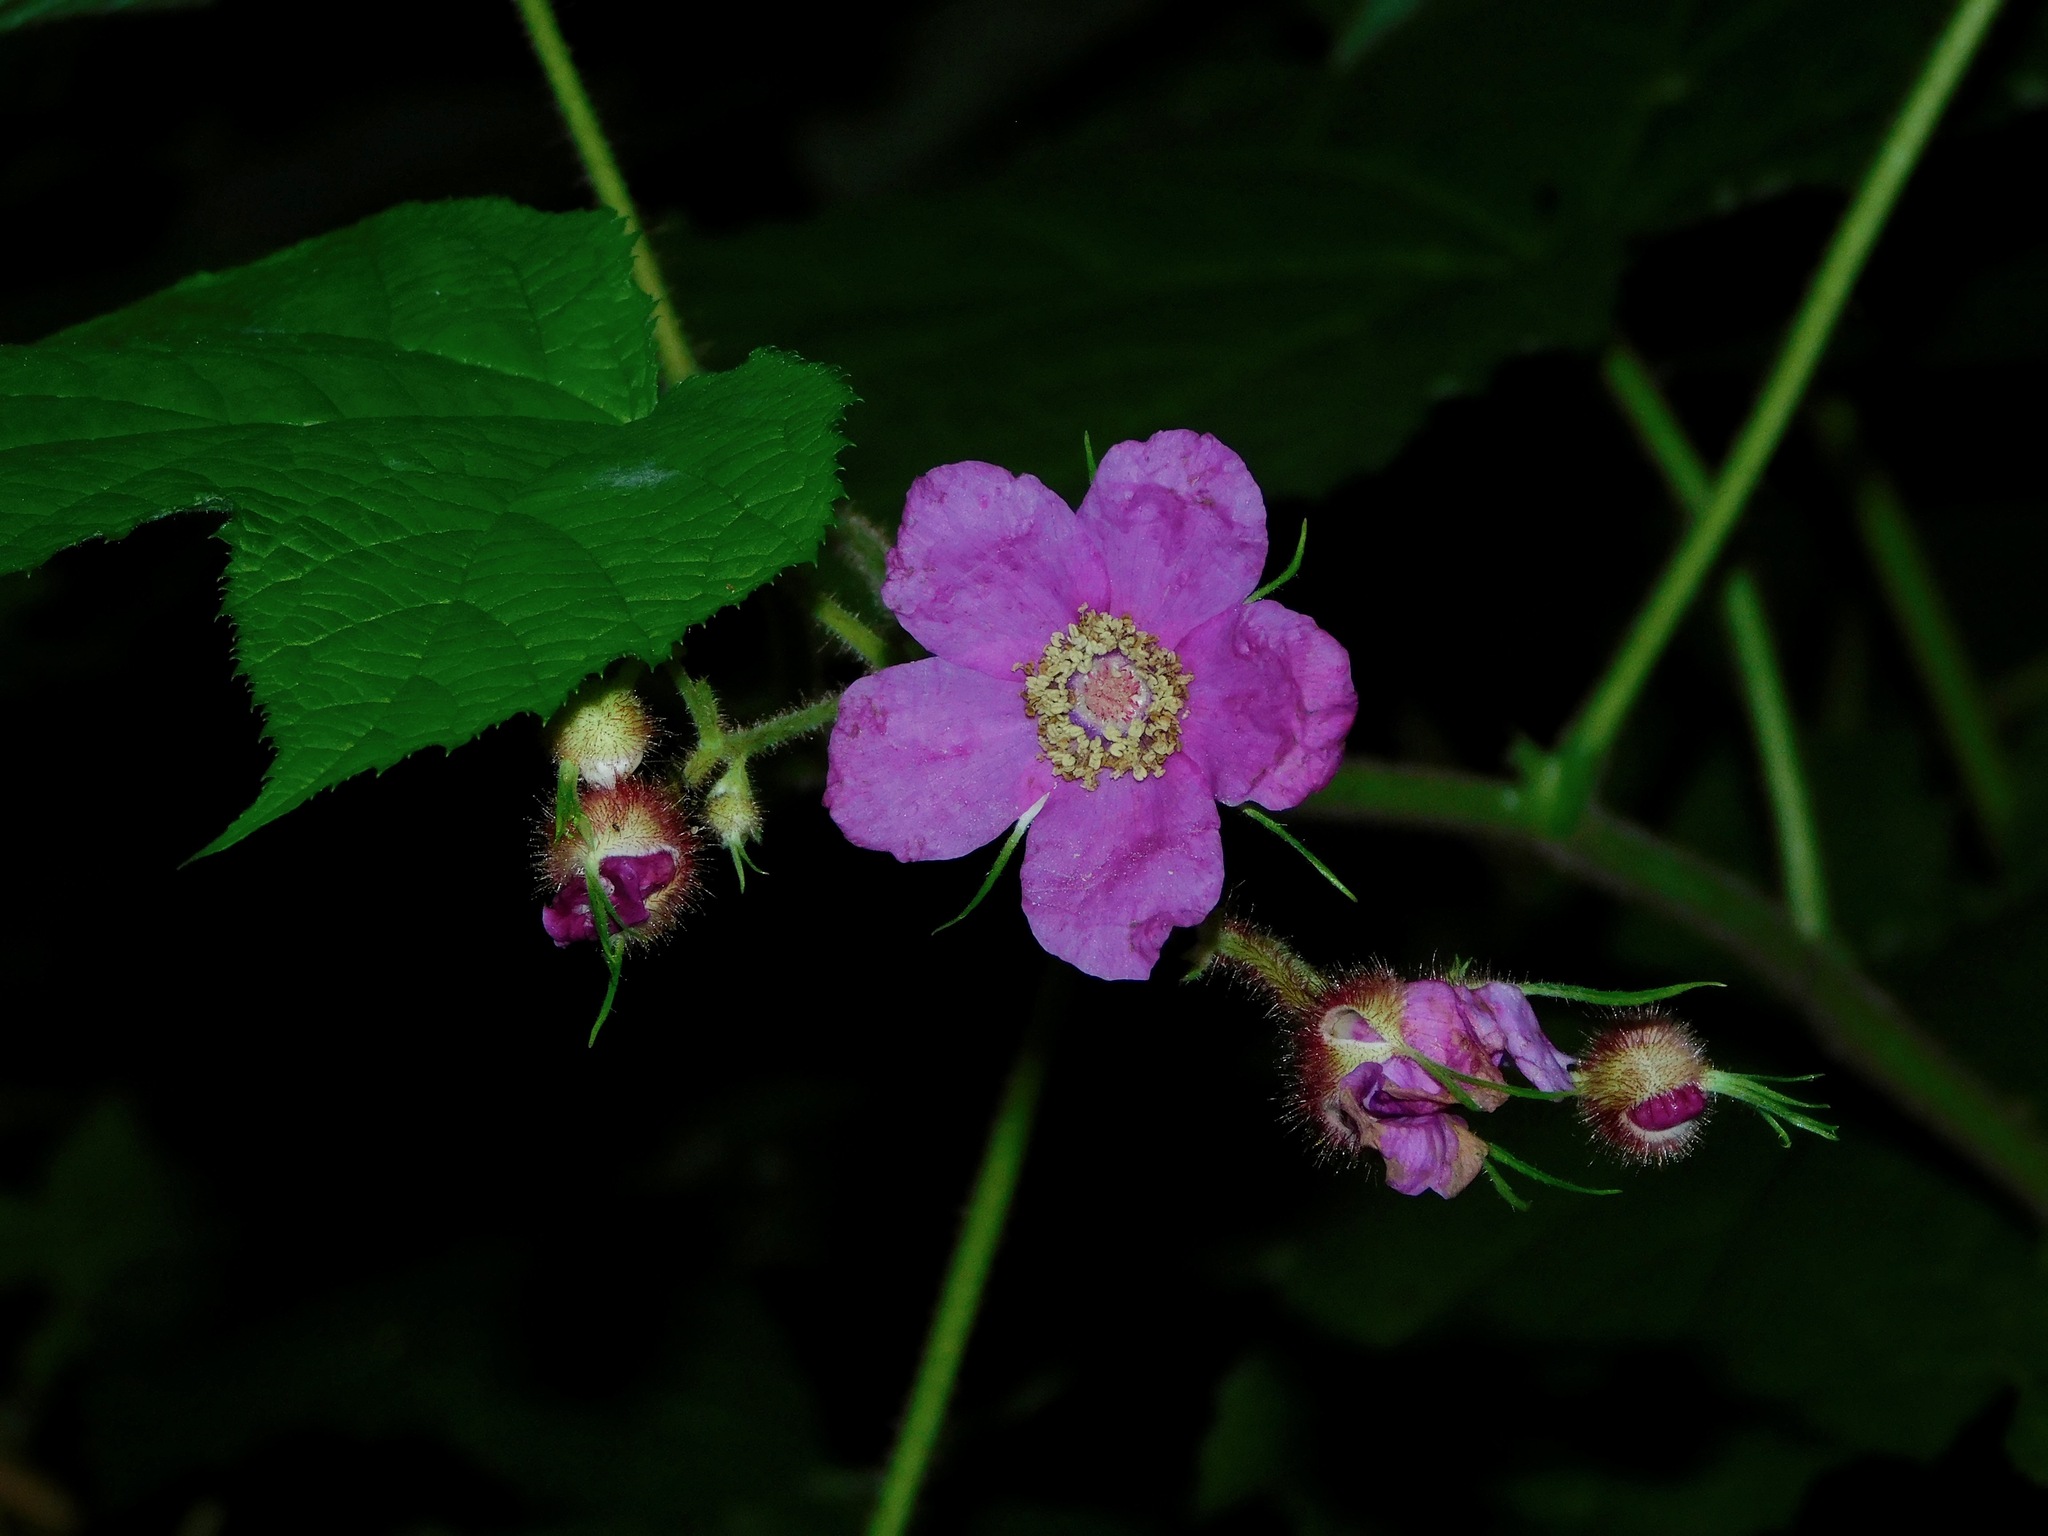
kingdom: Plantae
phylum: Tracheophyta
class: Magnoliopsida
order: Rosales
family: Rosaceae
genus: Rubus
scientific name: Rubus odoratus
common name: Purple-flowered raspberry
